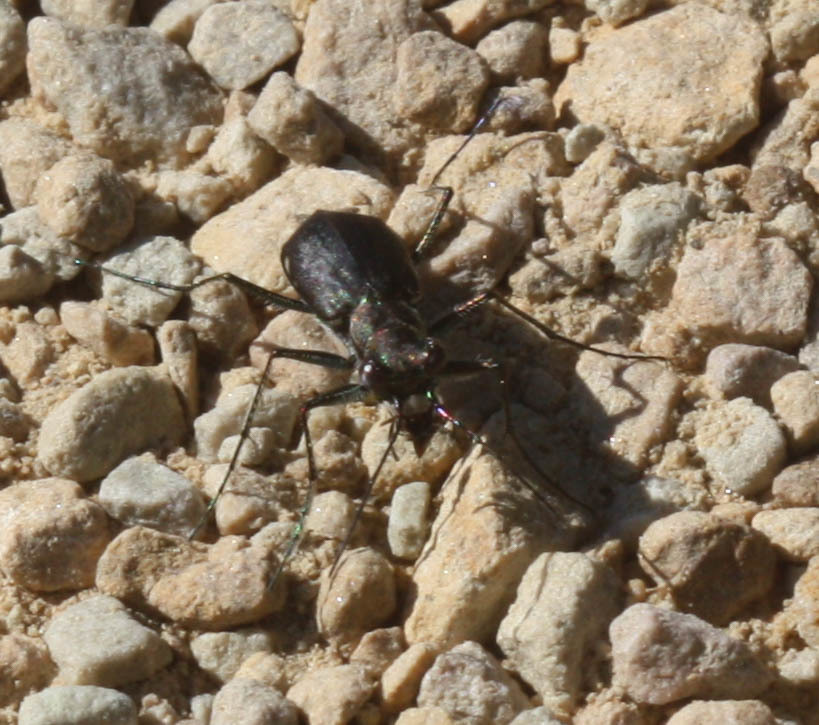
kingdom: Animalia
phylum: Arthropoda
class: Insecta
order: Coleoptera
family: Carabidae
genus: Cicindela
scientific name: Cicindela punctulata
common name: Punctured tiger beetle
